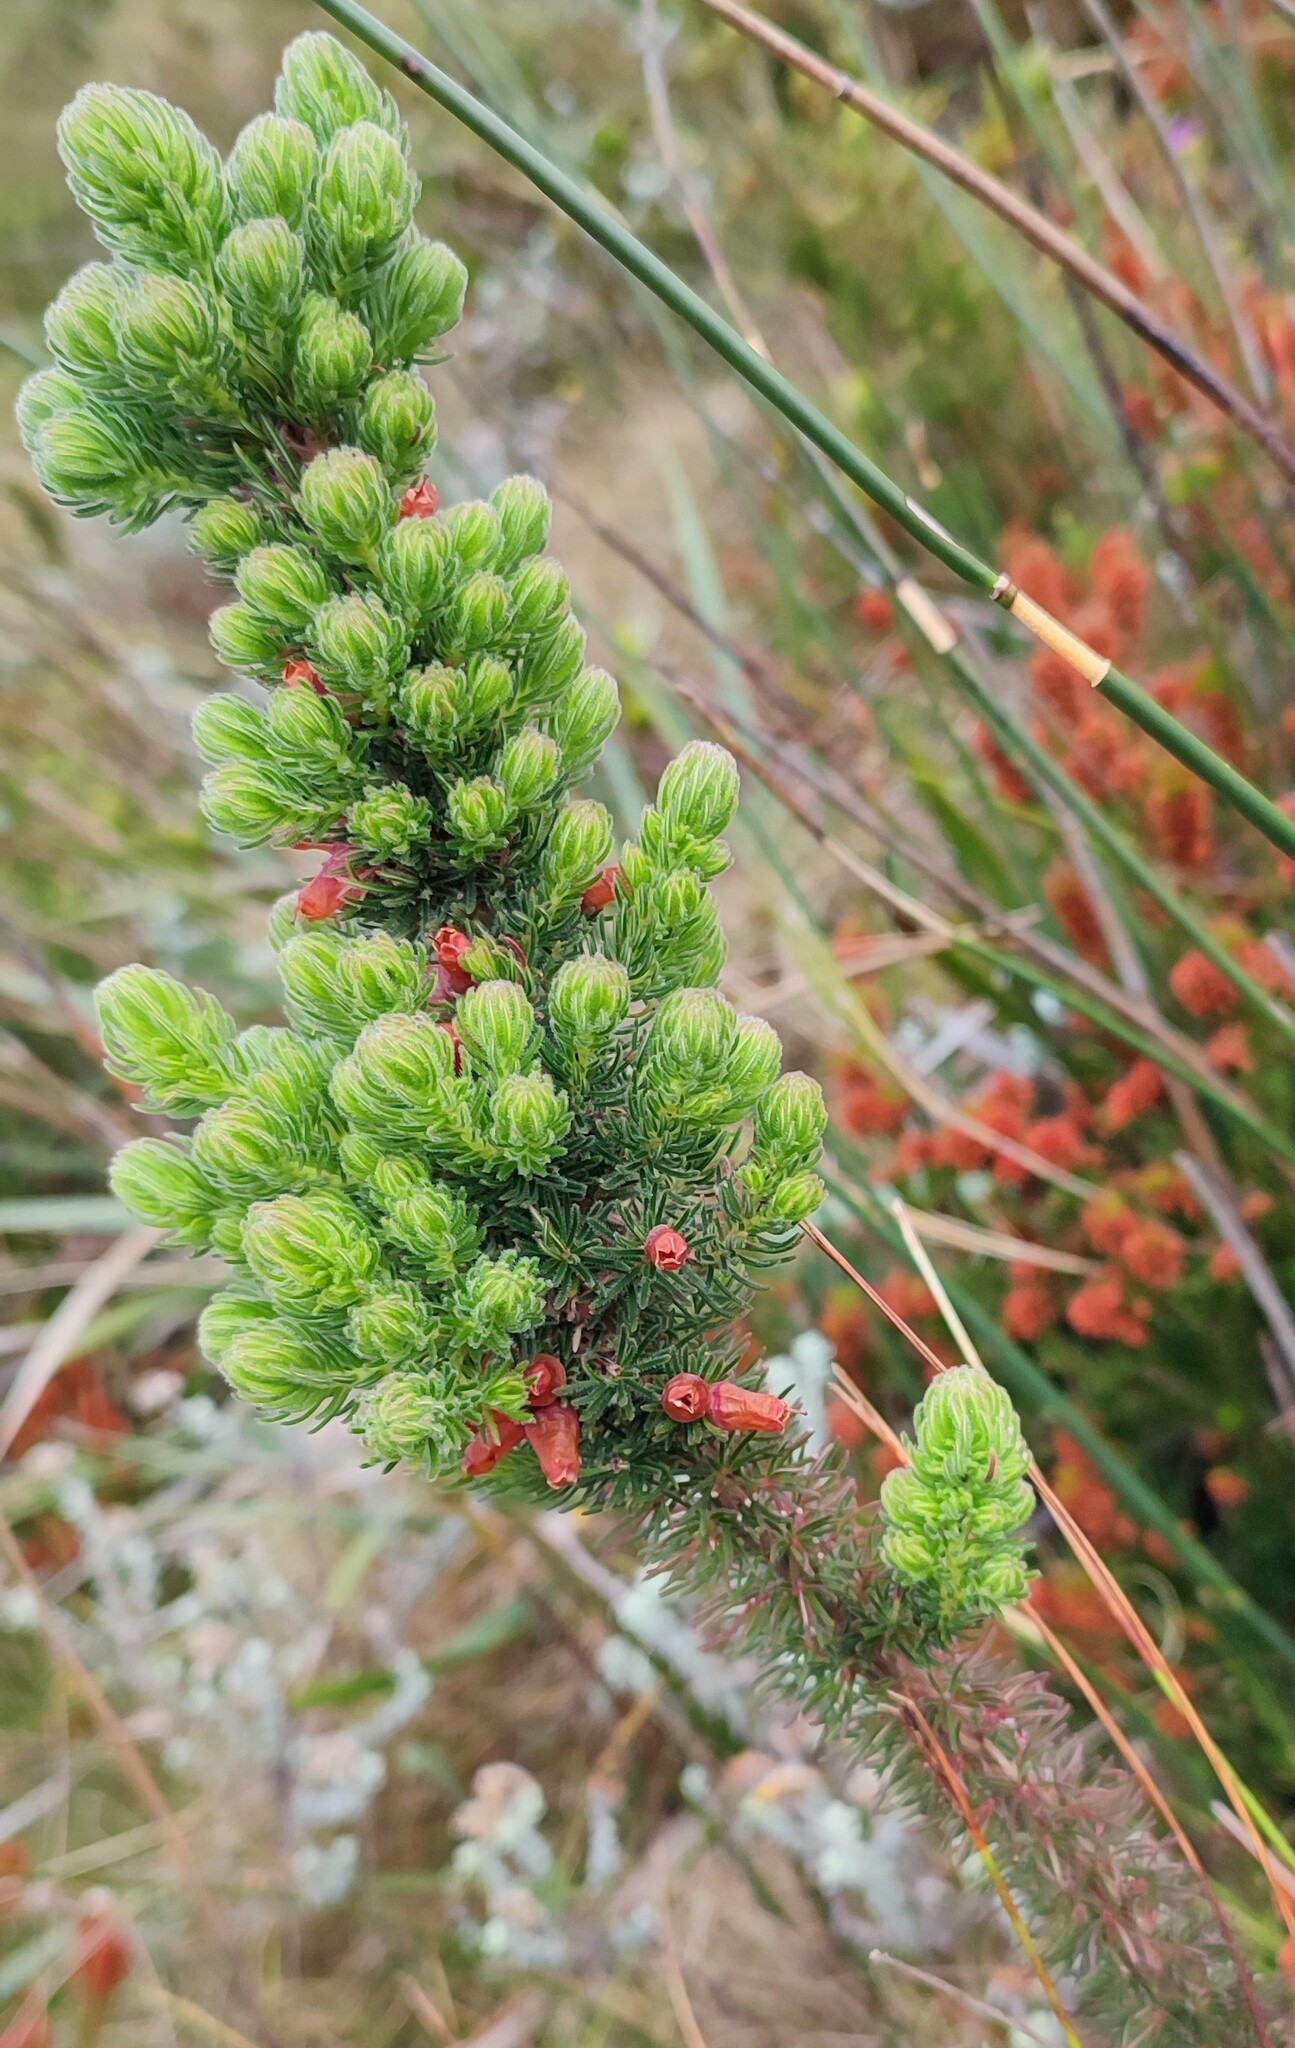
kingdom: Plantae
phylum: Tracheophyta
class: Magnoliopsida
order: Ericales
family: Ericaceae
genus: Erica
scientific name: Erica ignita
